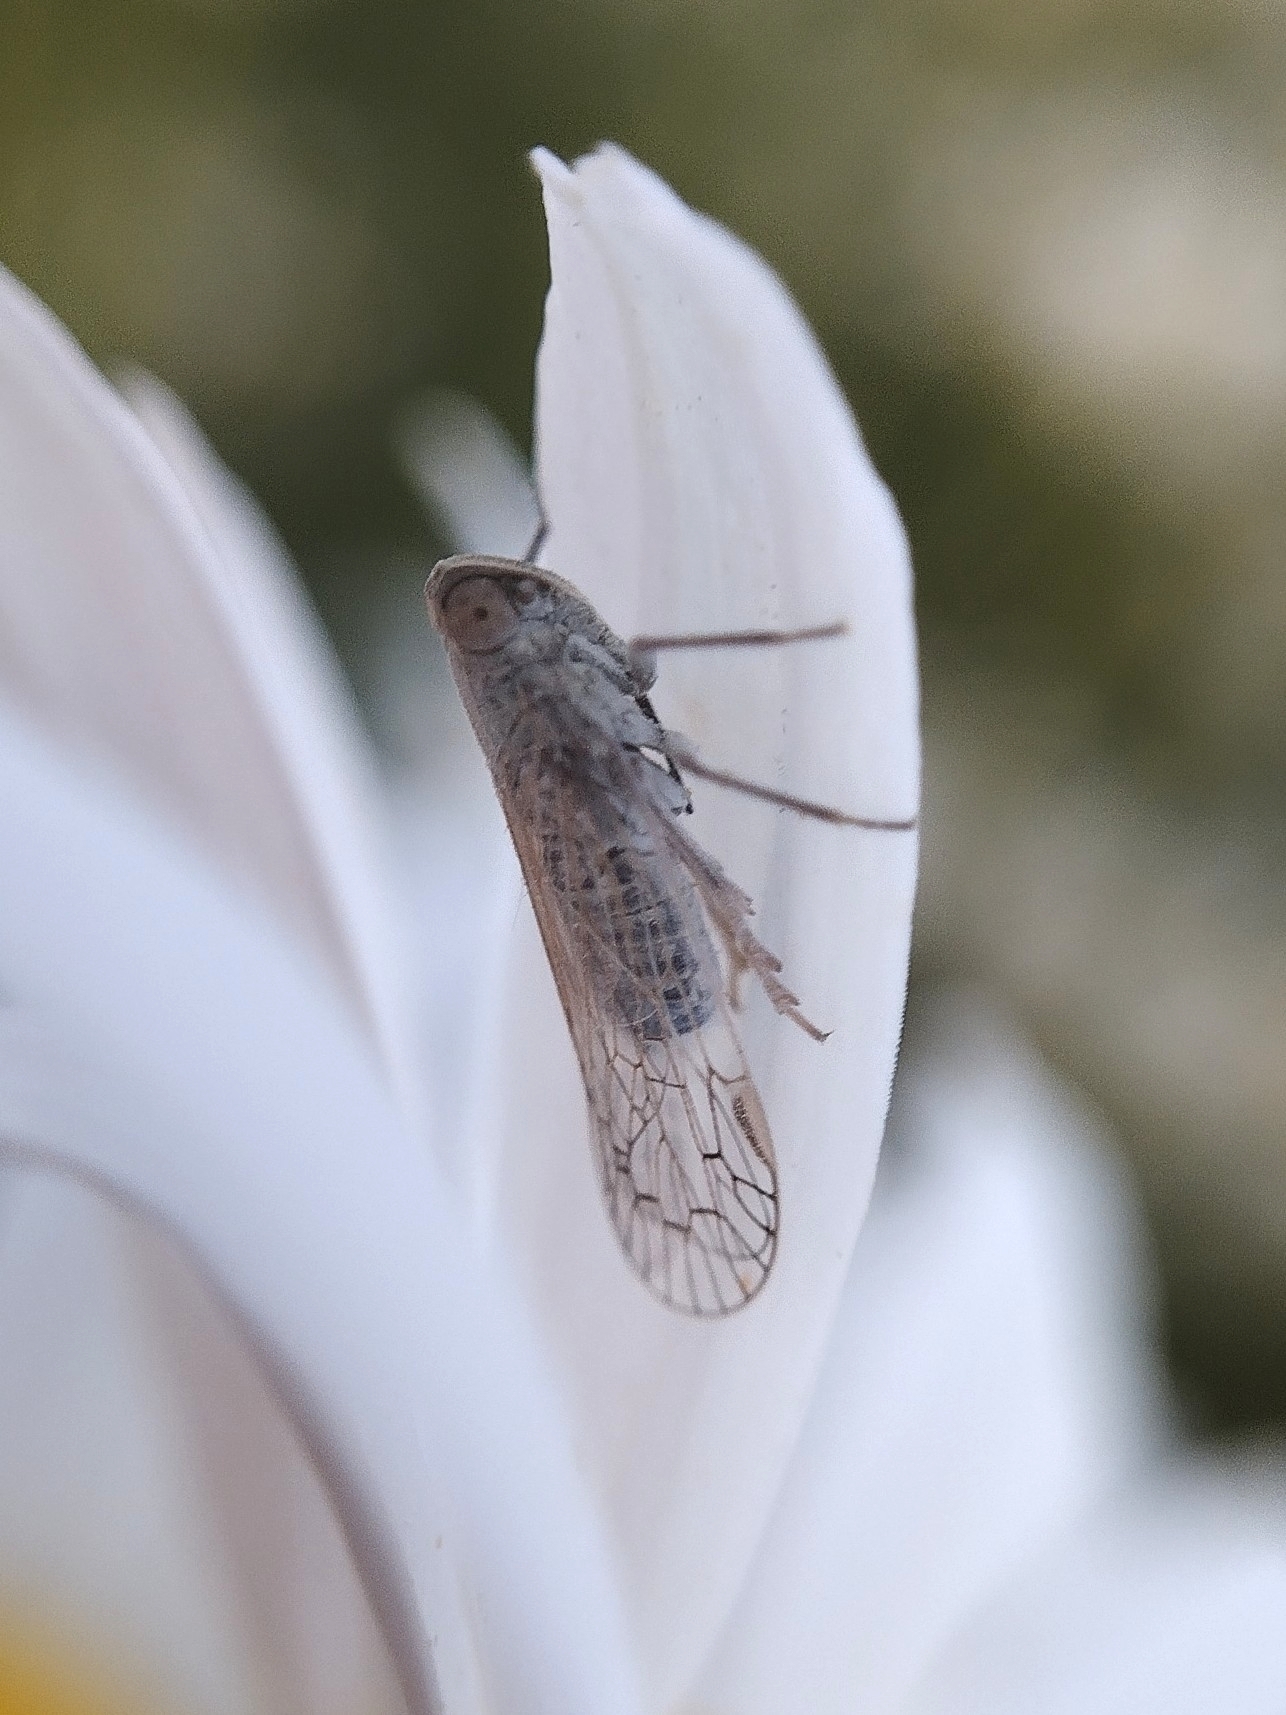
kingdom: Animalia
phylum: Arthropoda
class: Insecta
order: Hemiptera
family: Cixiidae
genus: Pentastiridius
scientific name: Pentastiridius leporinus
